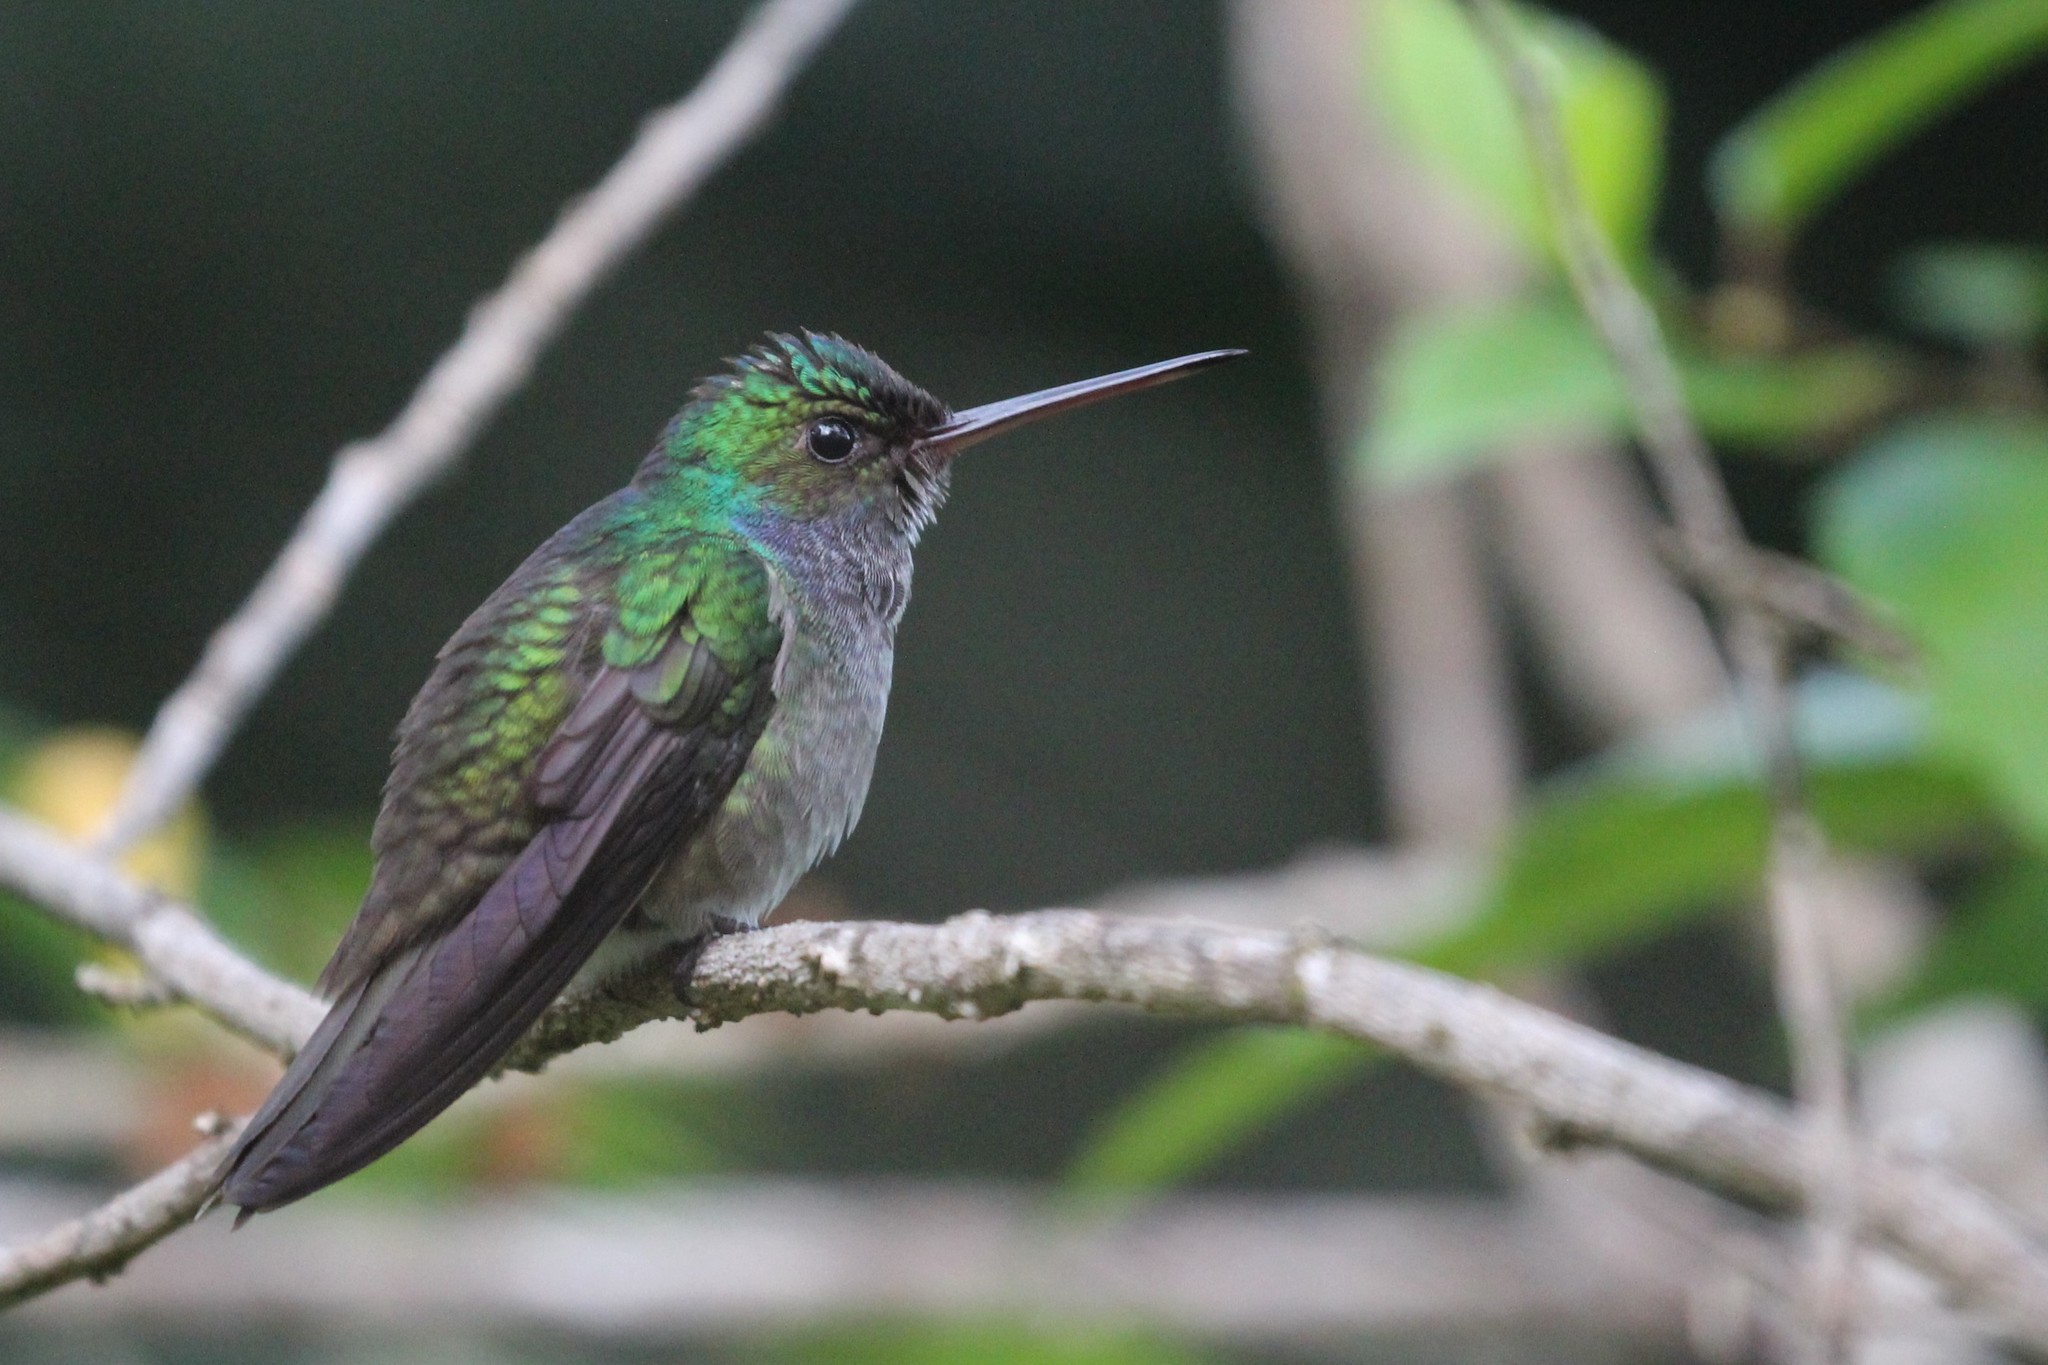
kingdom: Animalia
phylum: Chordata
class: Aves
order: Apodiformes
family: Trochilidae
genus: Polyerata
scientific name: Polyerata decora
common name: Charming hummingbird
